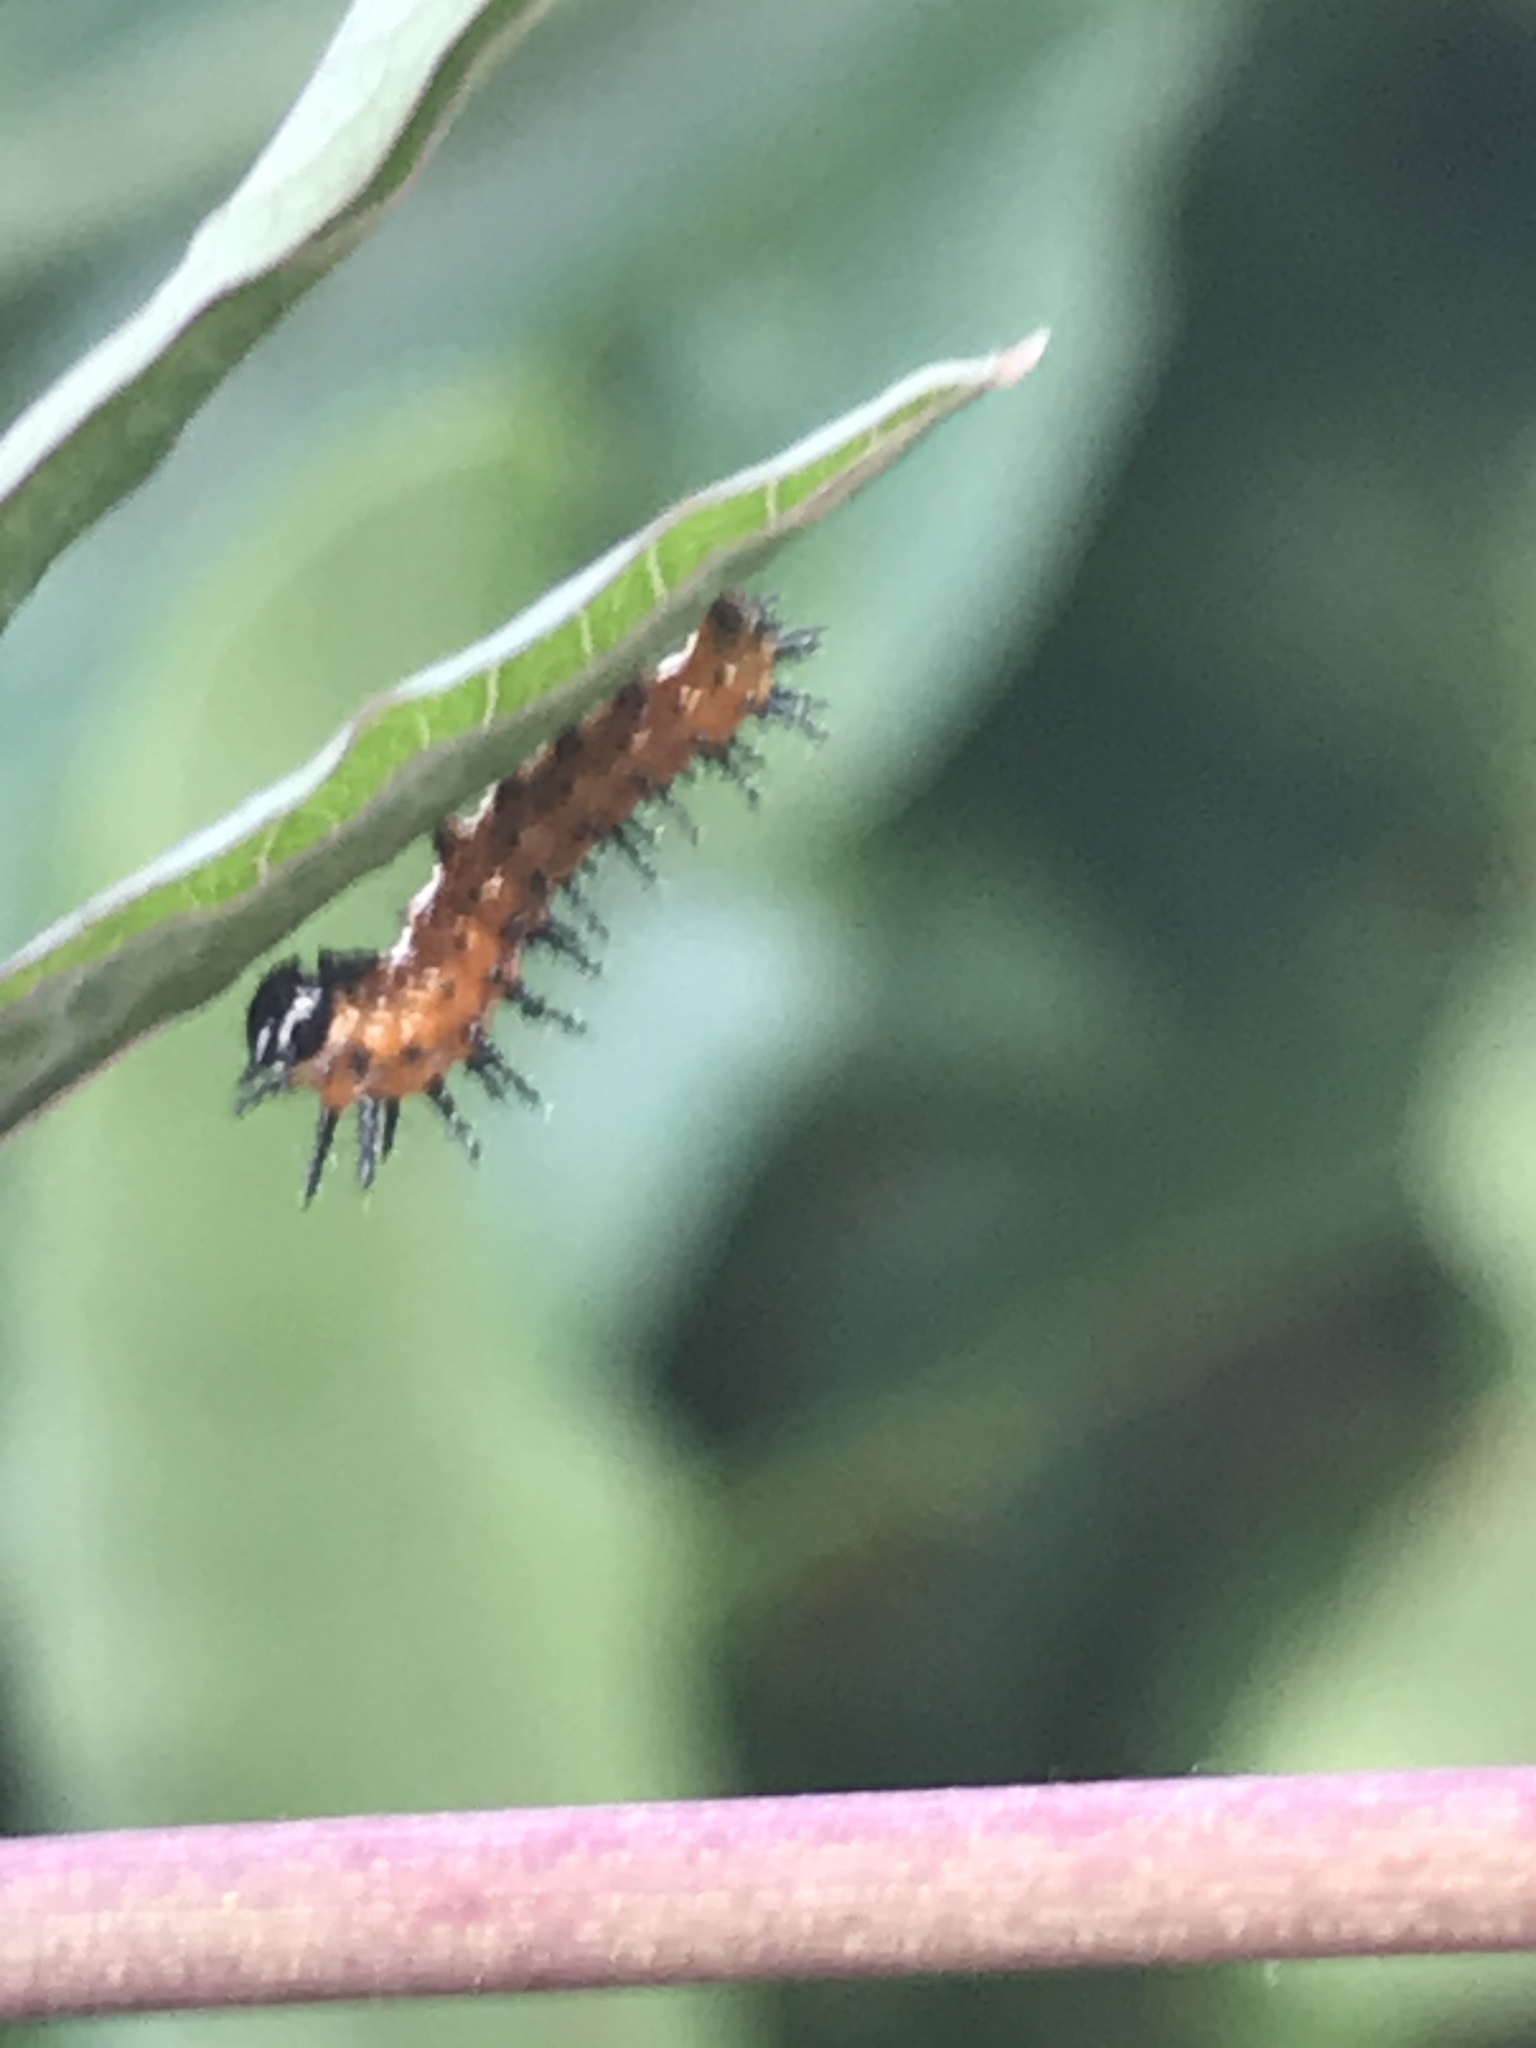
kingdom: Animalia
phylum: Arthropoda
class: Insecta
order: Lepidoptera
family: Nymphalidae
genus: Dione
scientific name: Dione vanillae
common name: Gulf fritillary
